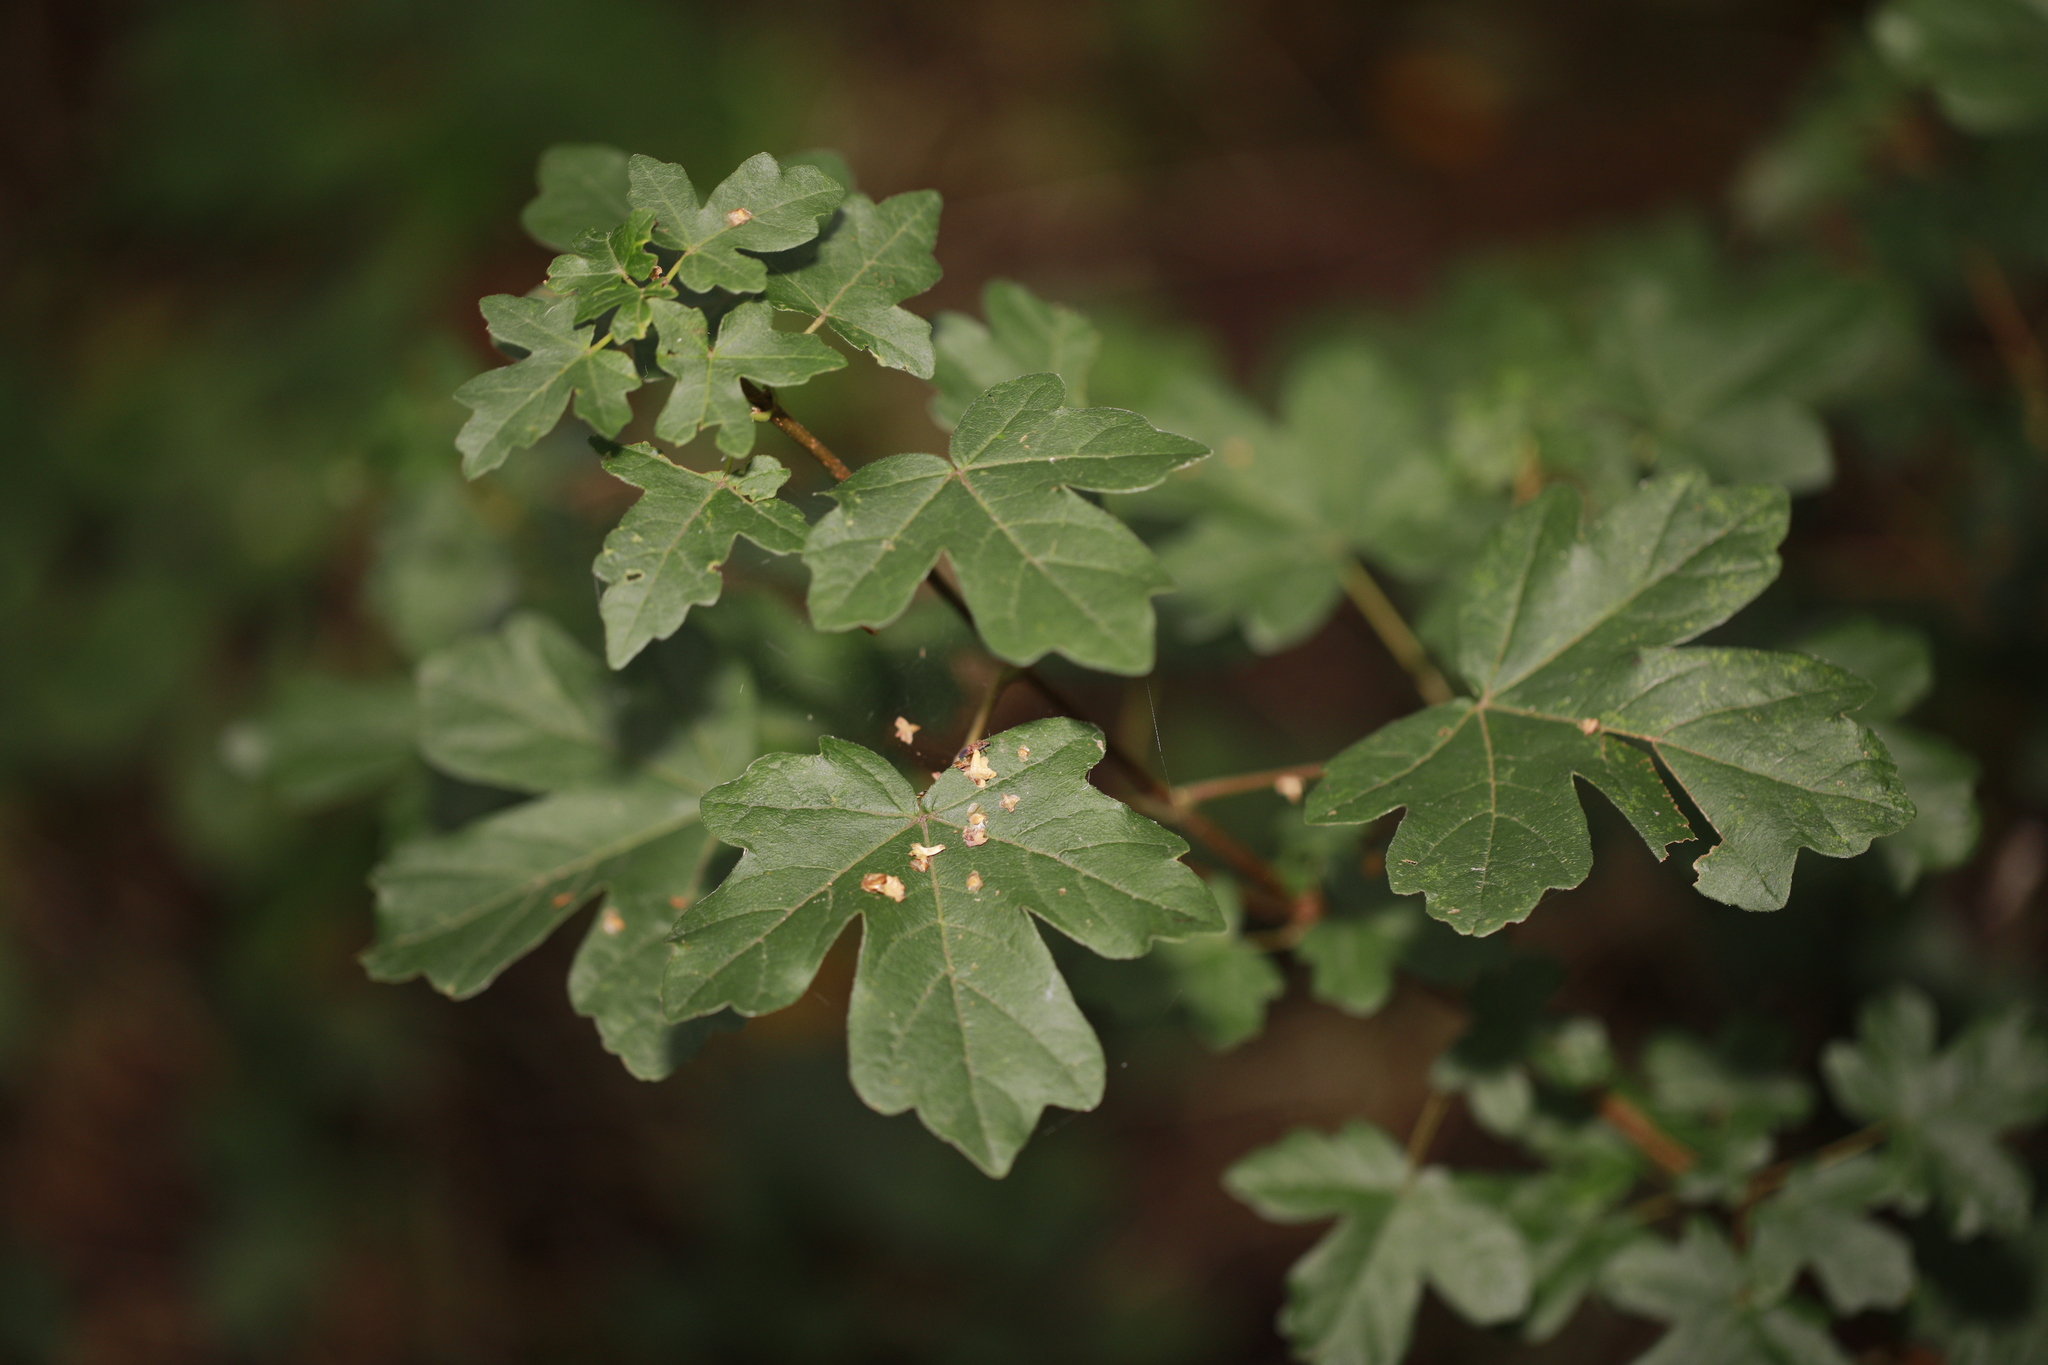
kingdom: Plantae
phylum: Tracheophyta
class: Magnoliopsida
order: Sapindales
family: Sapindaceae
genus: Acer
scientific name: Acer campestre
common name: Field maple
